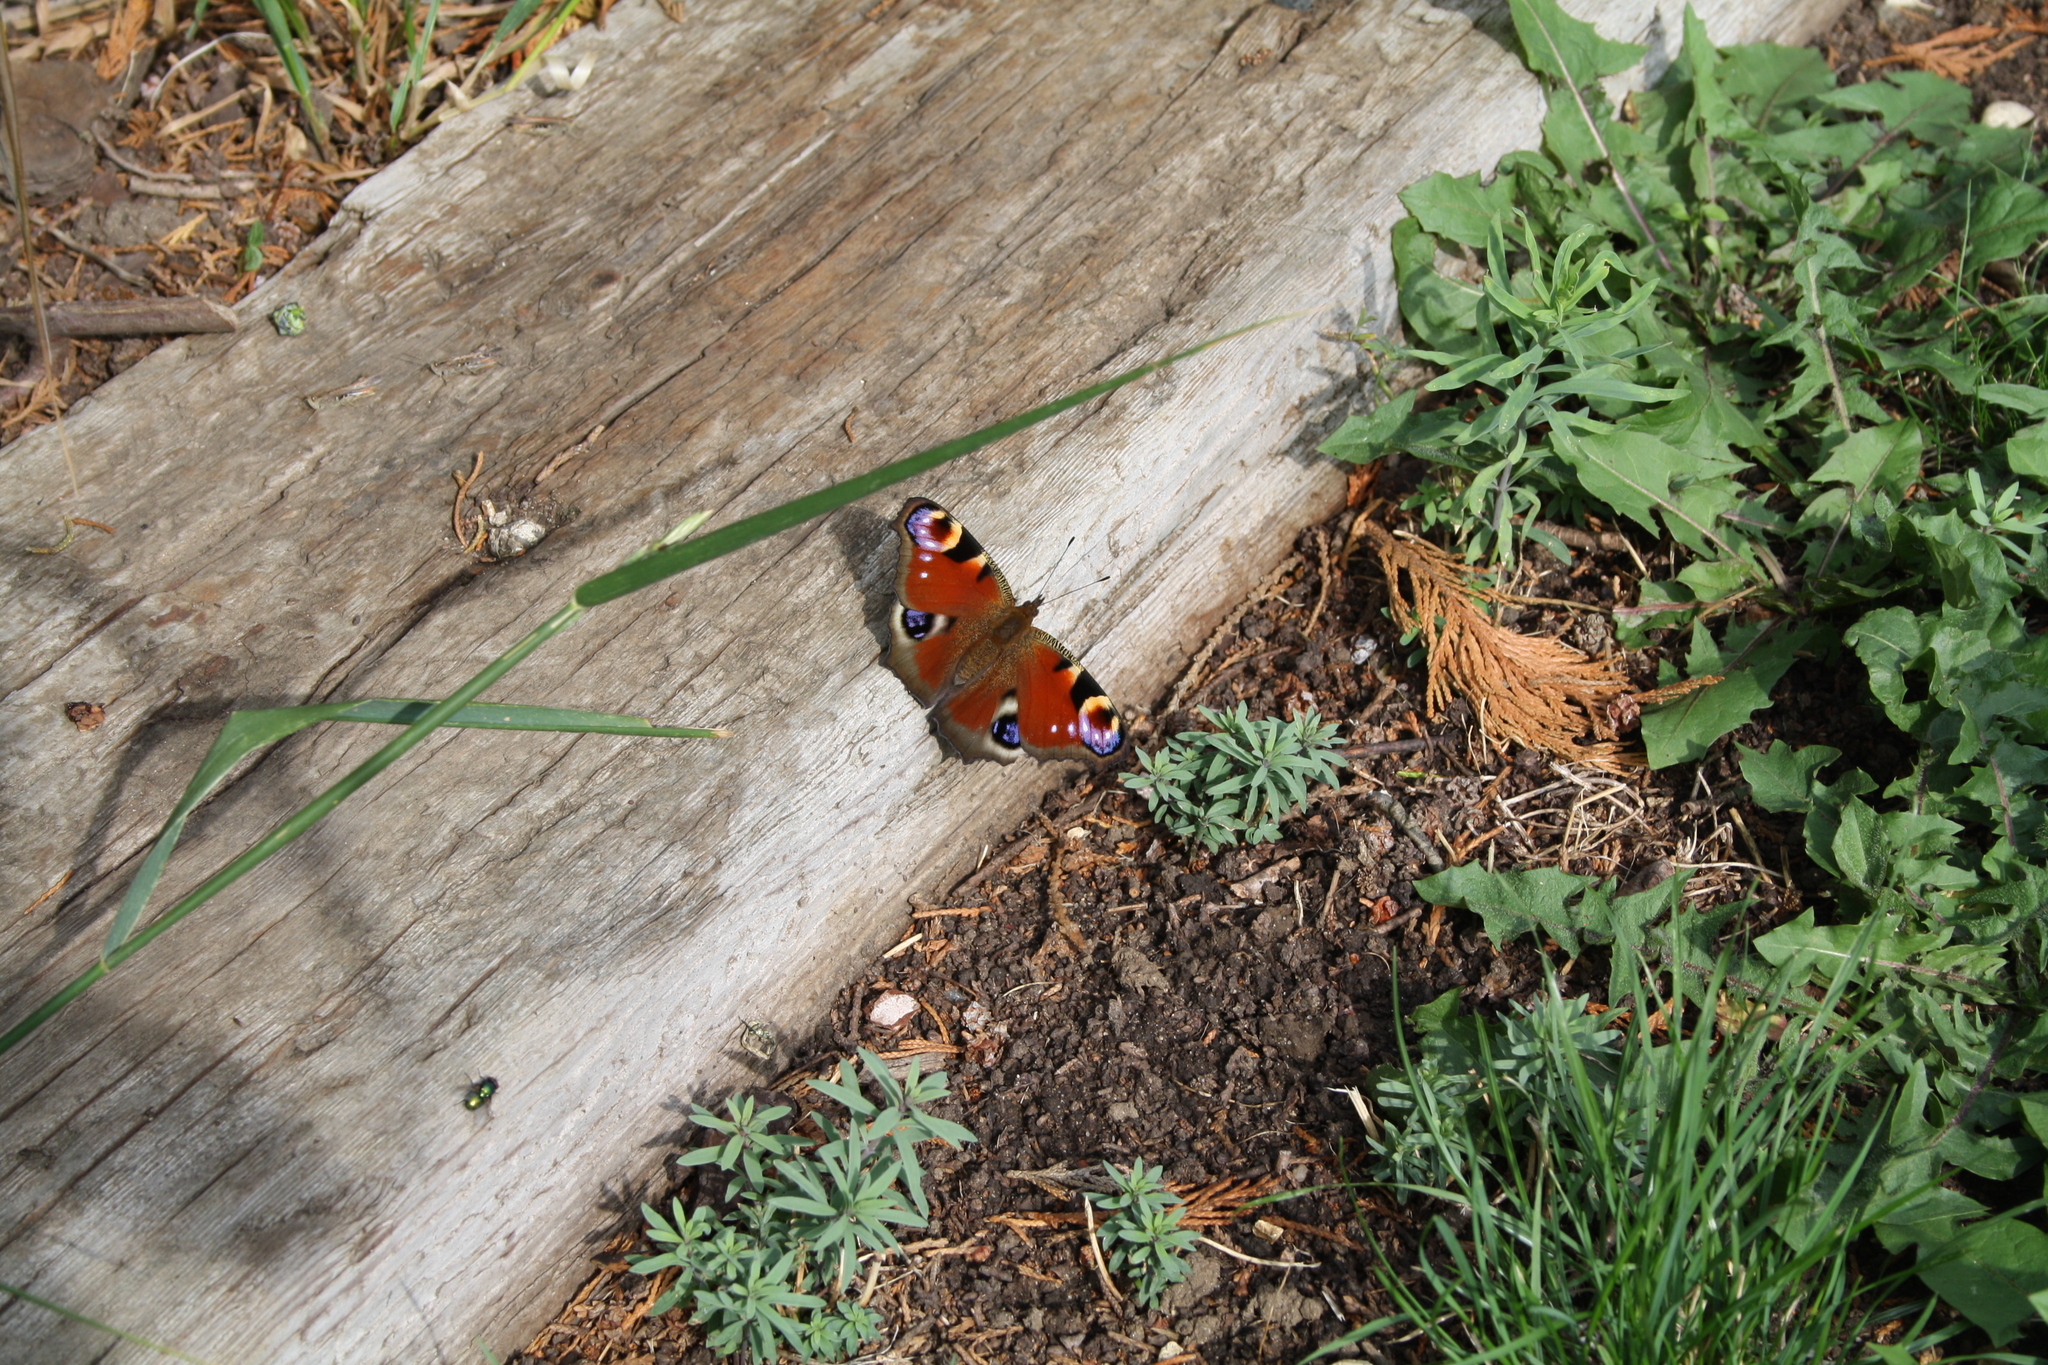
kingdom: Animalia
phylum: Arthropoda
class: Insecta
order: Lepidoptera
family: Nymphalidae
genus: Aglais
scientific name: Aglais io
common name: Peacock
